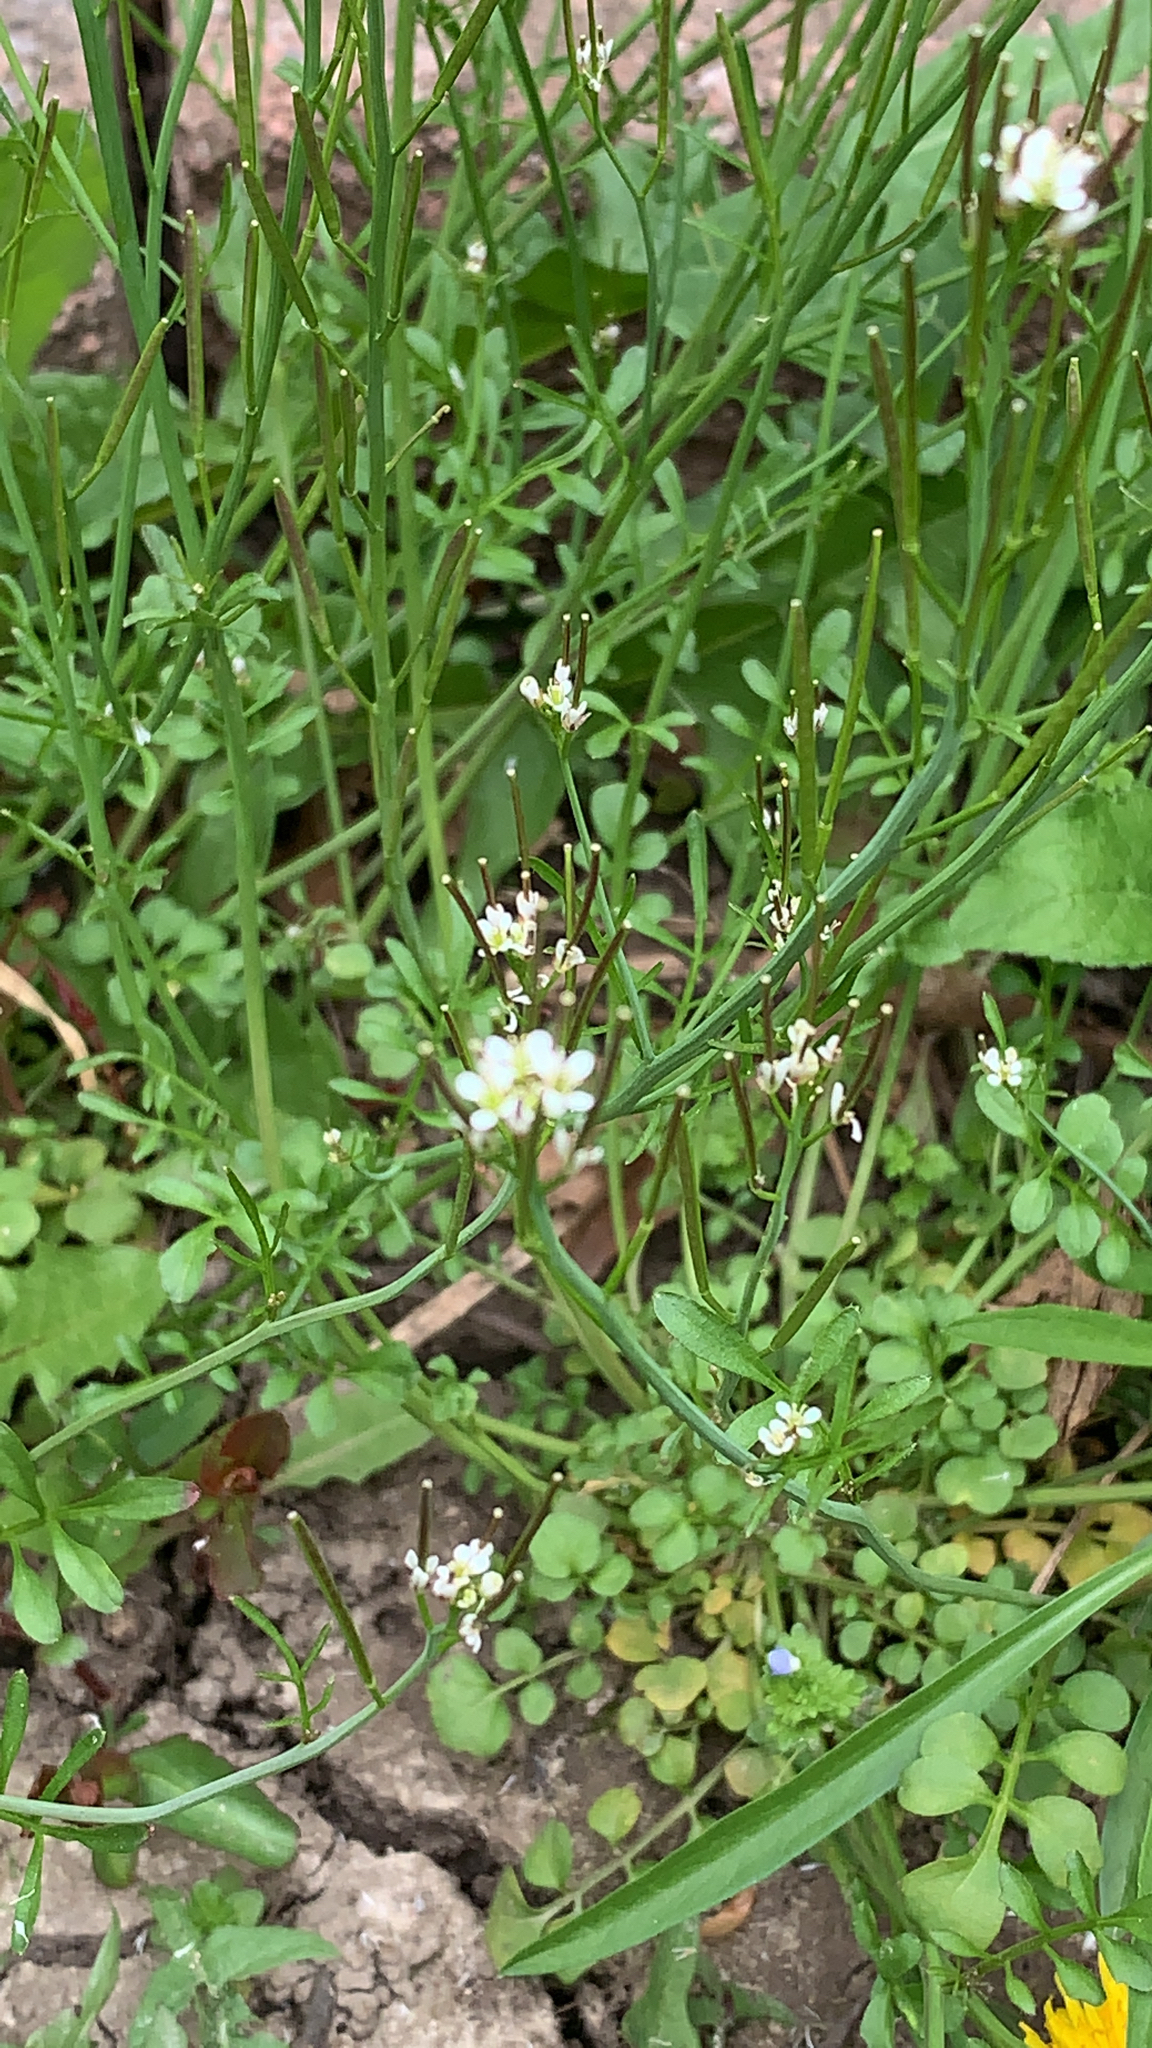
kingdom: Plantae
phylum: Tracheophyta
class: Magnoliopsida
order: Brassicales
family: Brassicaceae
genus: Cardamine
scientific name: Cardamine hirsuta
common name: Hairy bittercress
